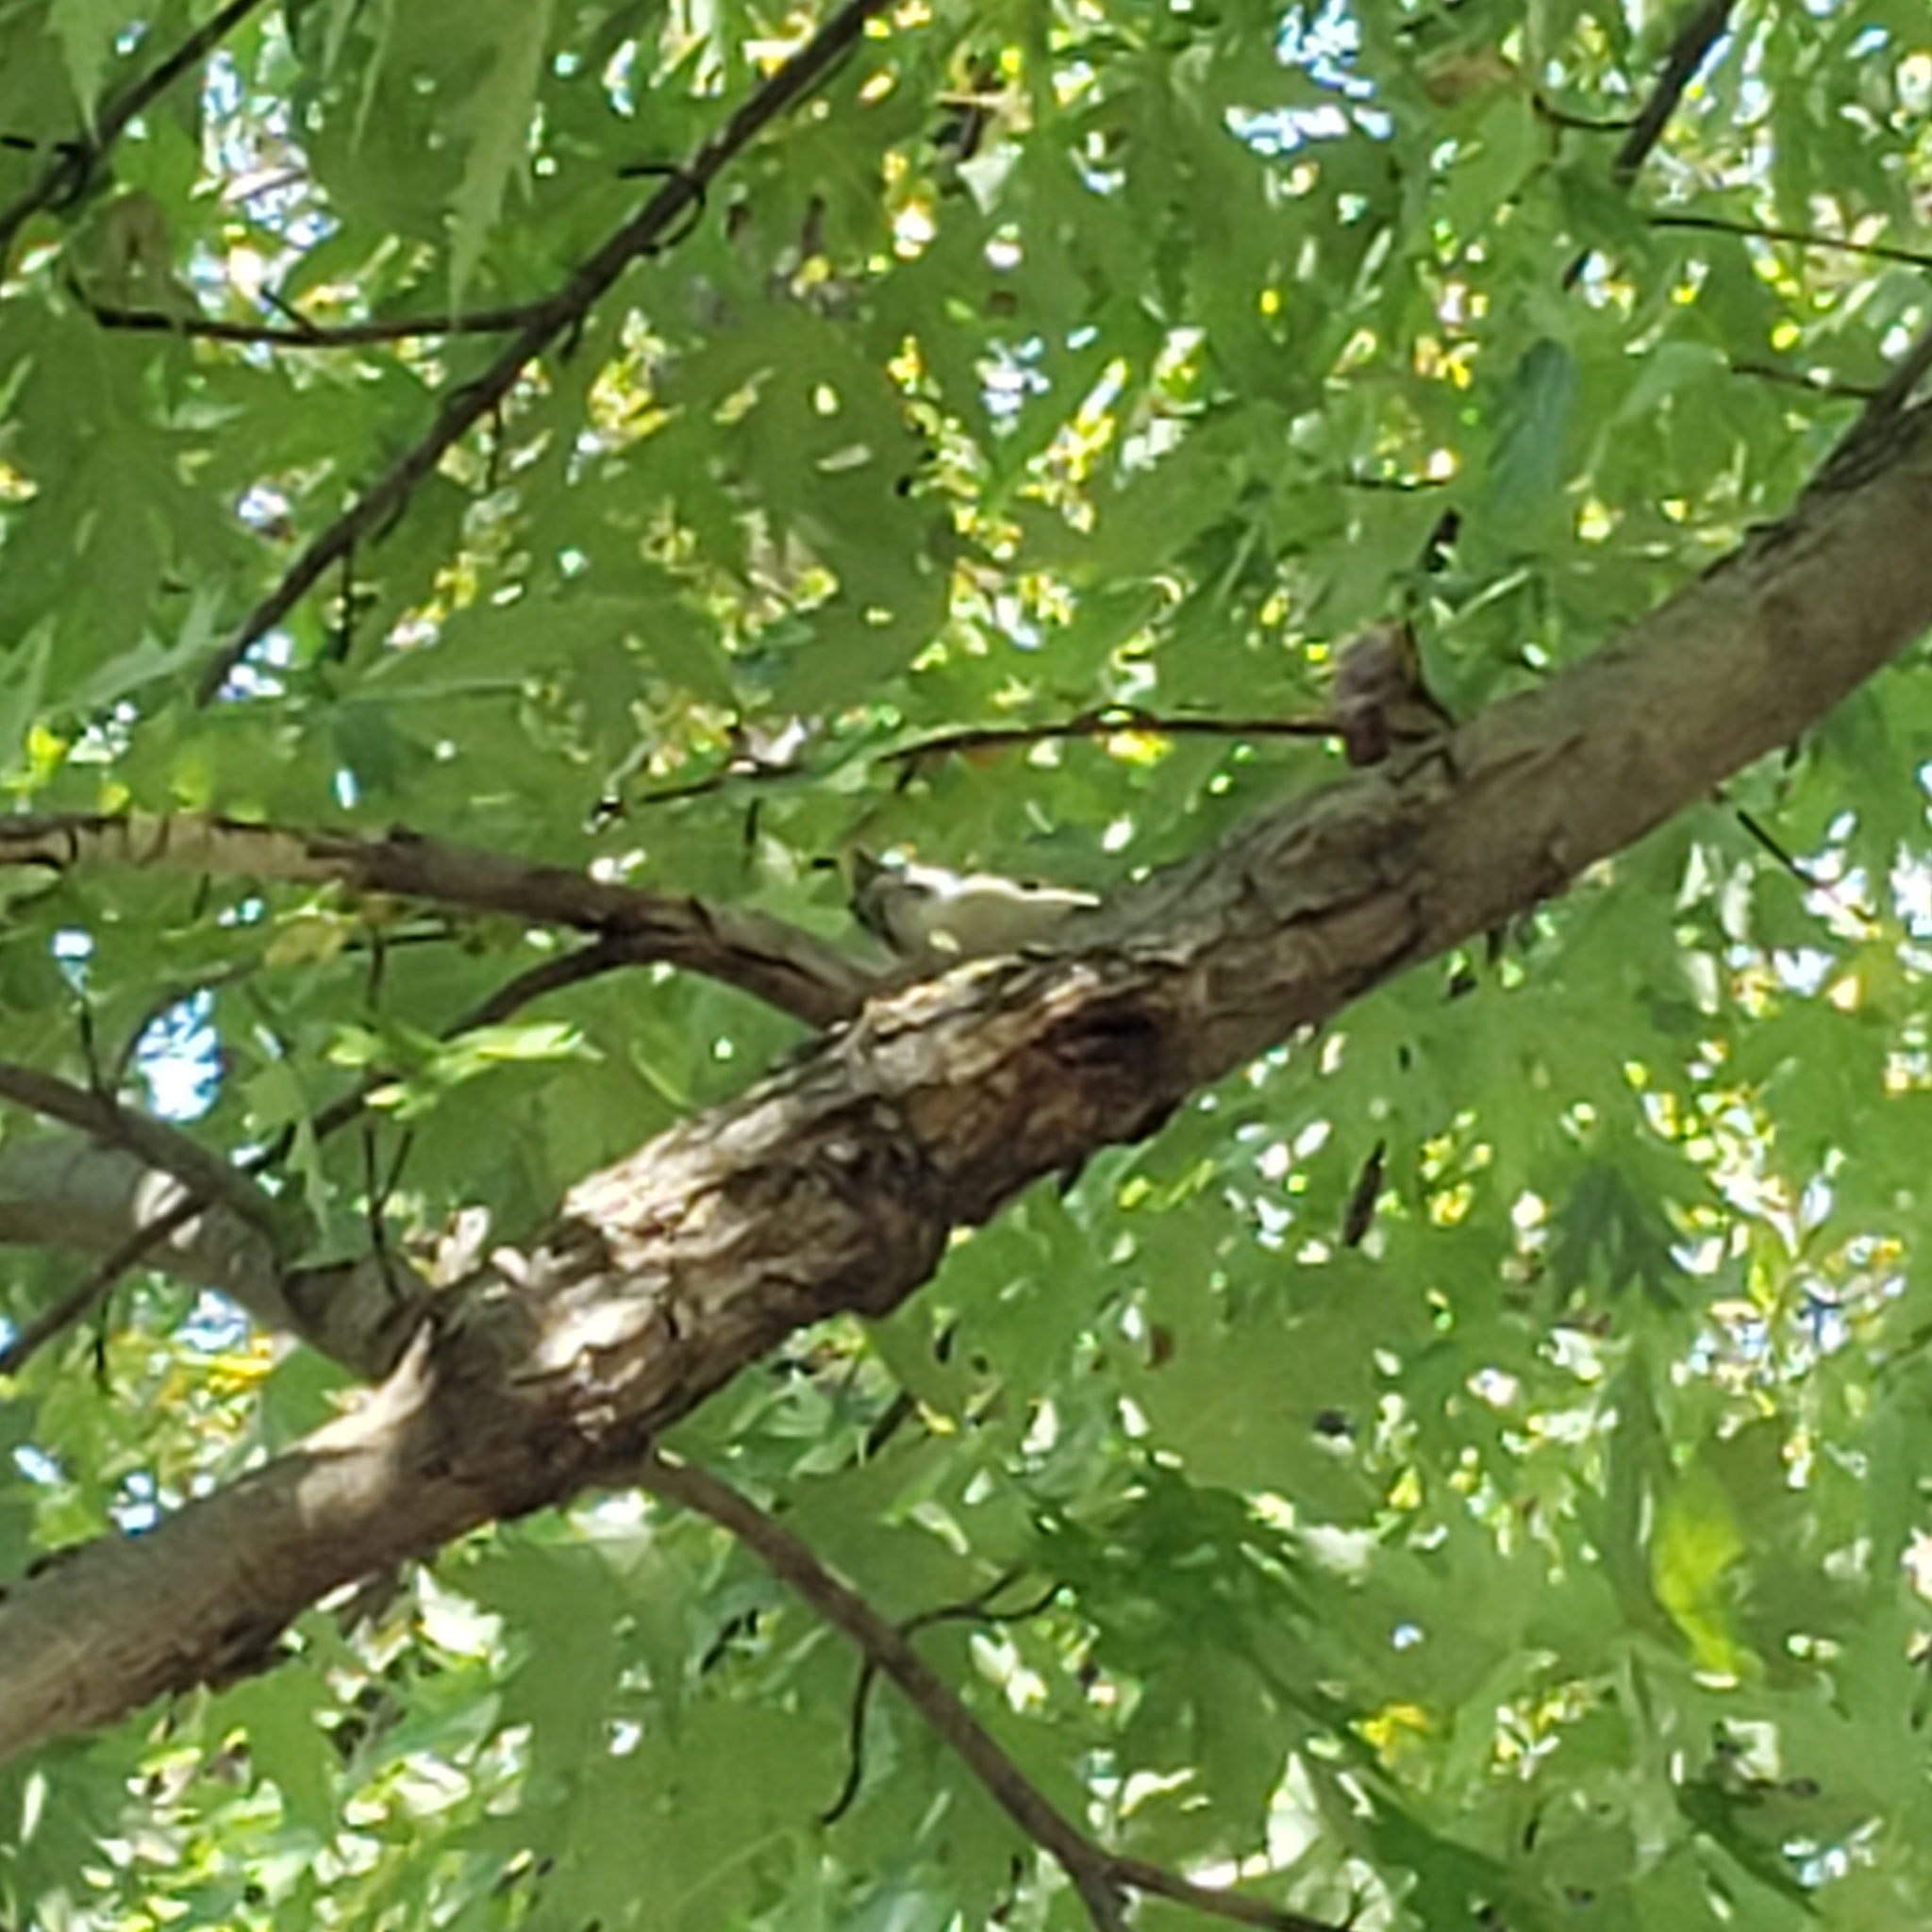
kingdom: Animalia
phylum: Chordata
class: Aves
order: Piciformes
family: Picidae
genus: Dryobates
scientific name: Dryobates pubescens
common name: Downy woodpecker
